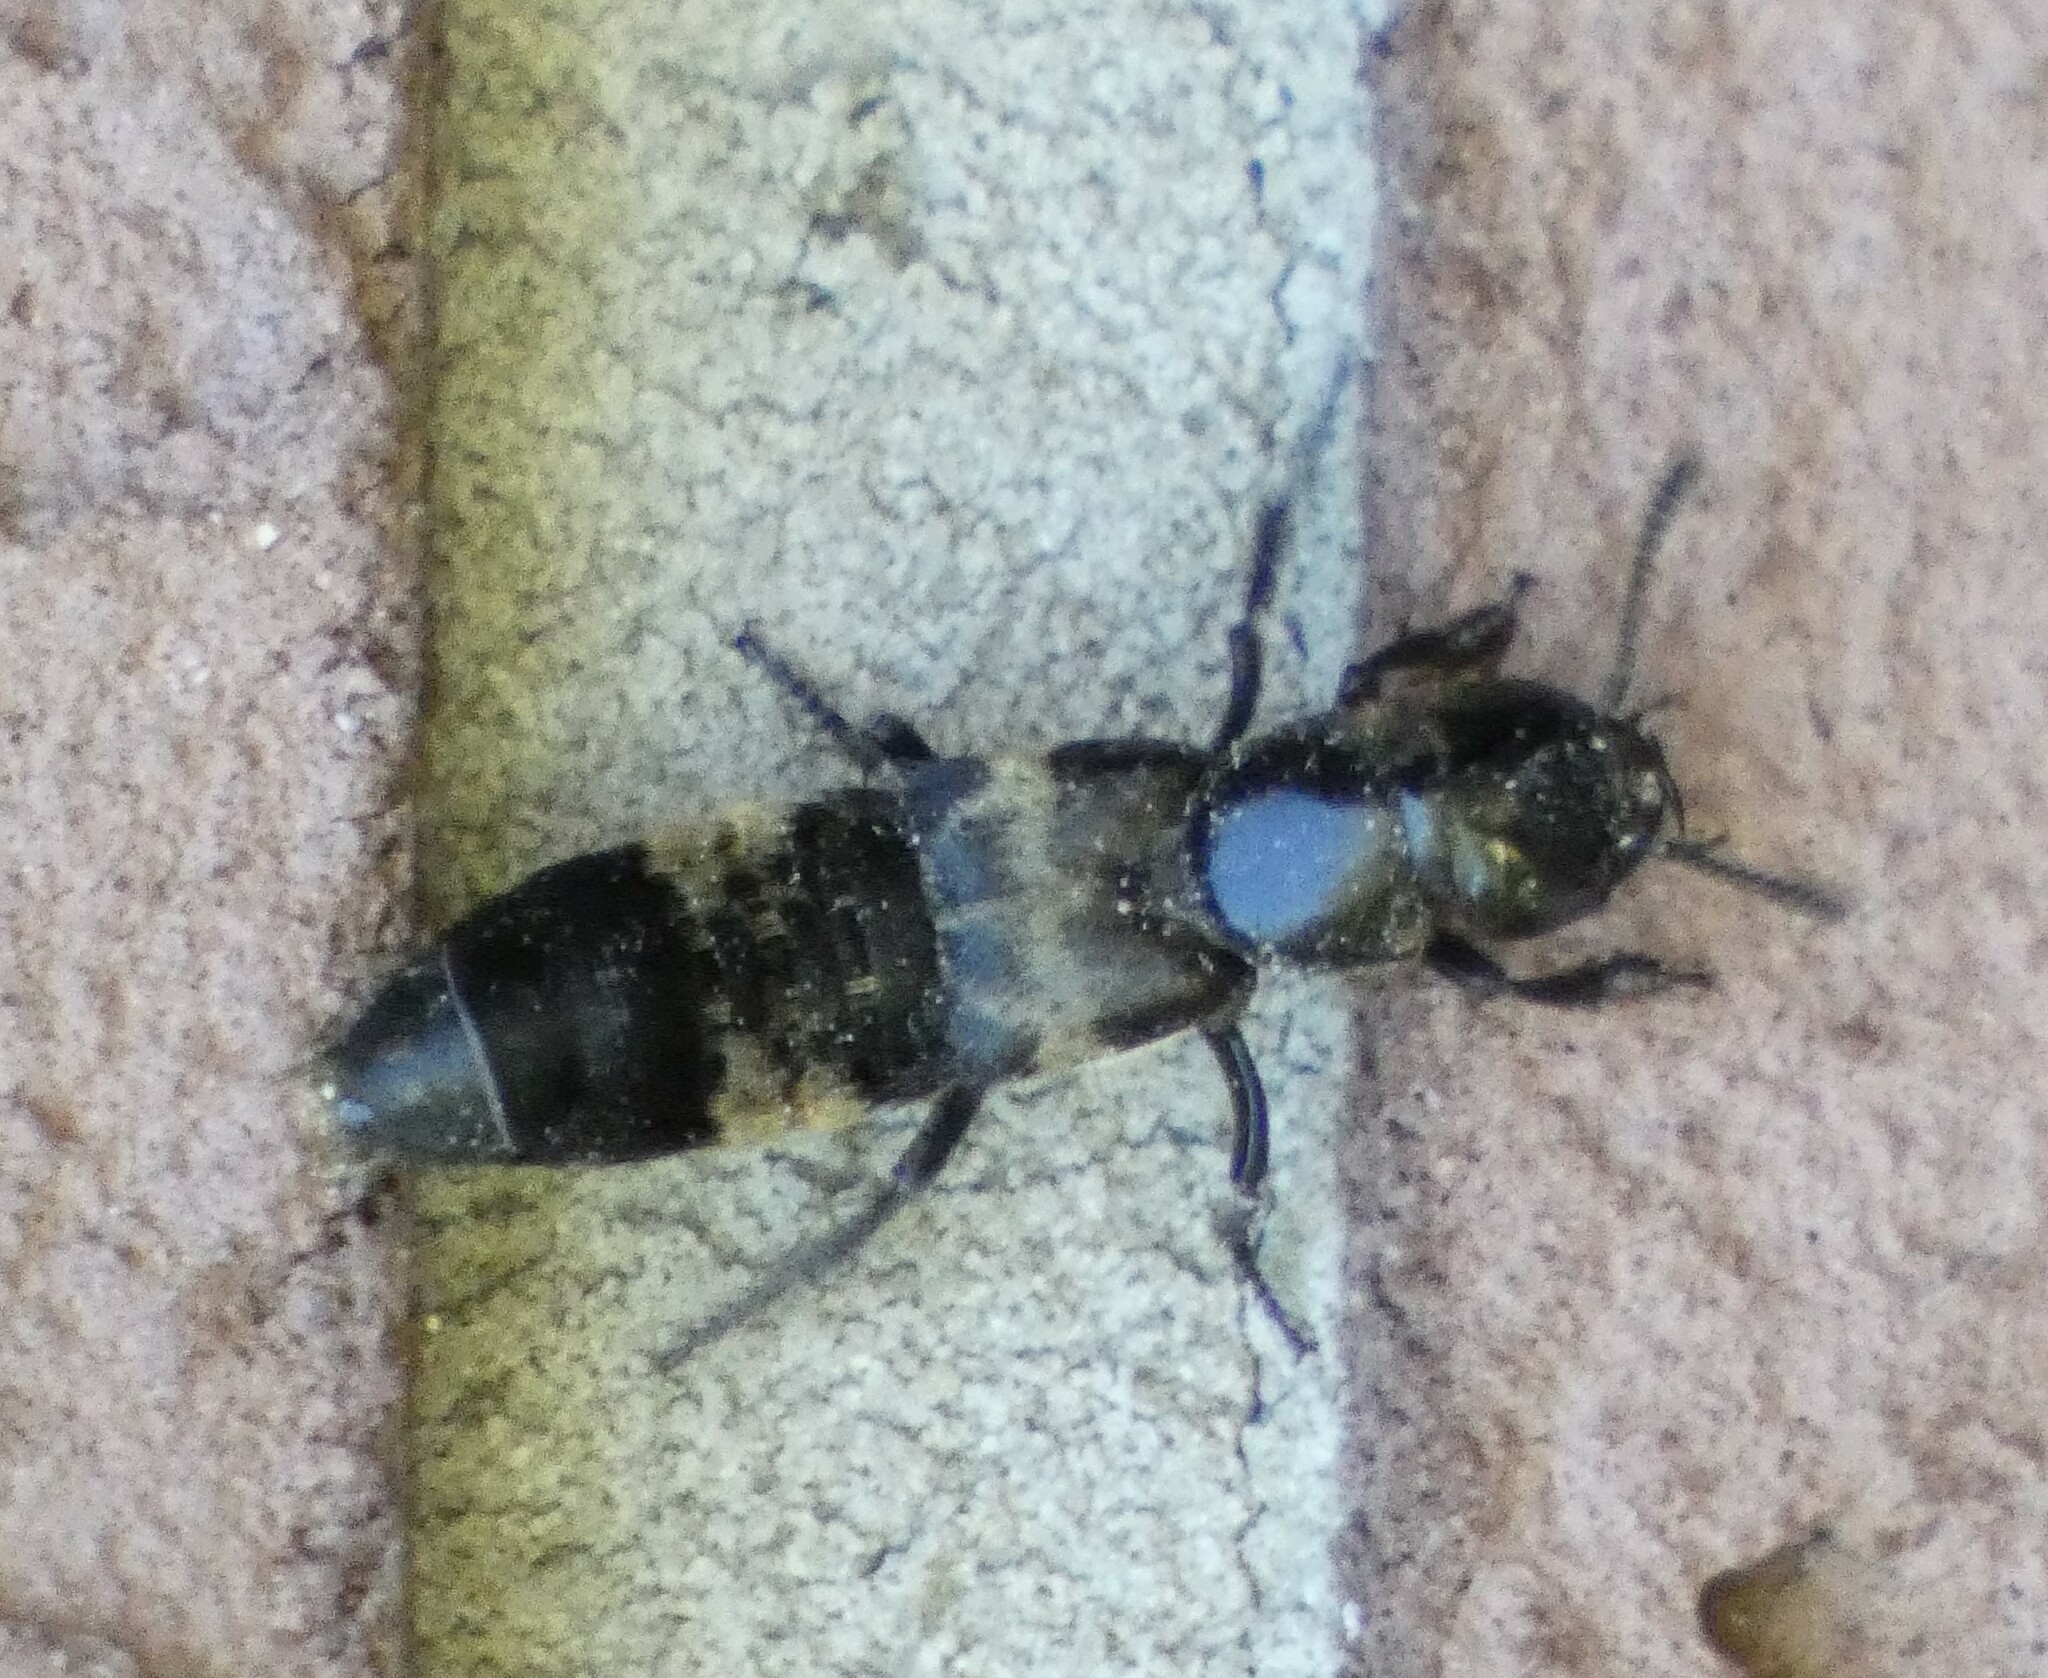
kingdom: Animalia
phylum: Arthropoda
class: Insecta
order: Coleoptera
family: Staphylinidae
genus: Creophilus
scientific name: Creophilus maxillosus
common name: Hairy rove beetle
